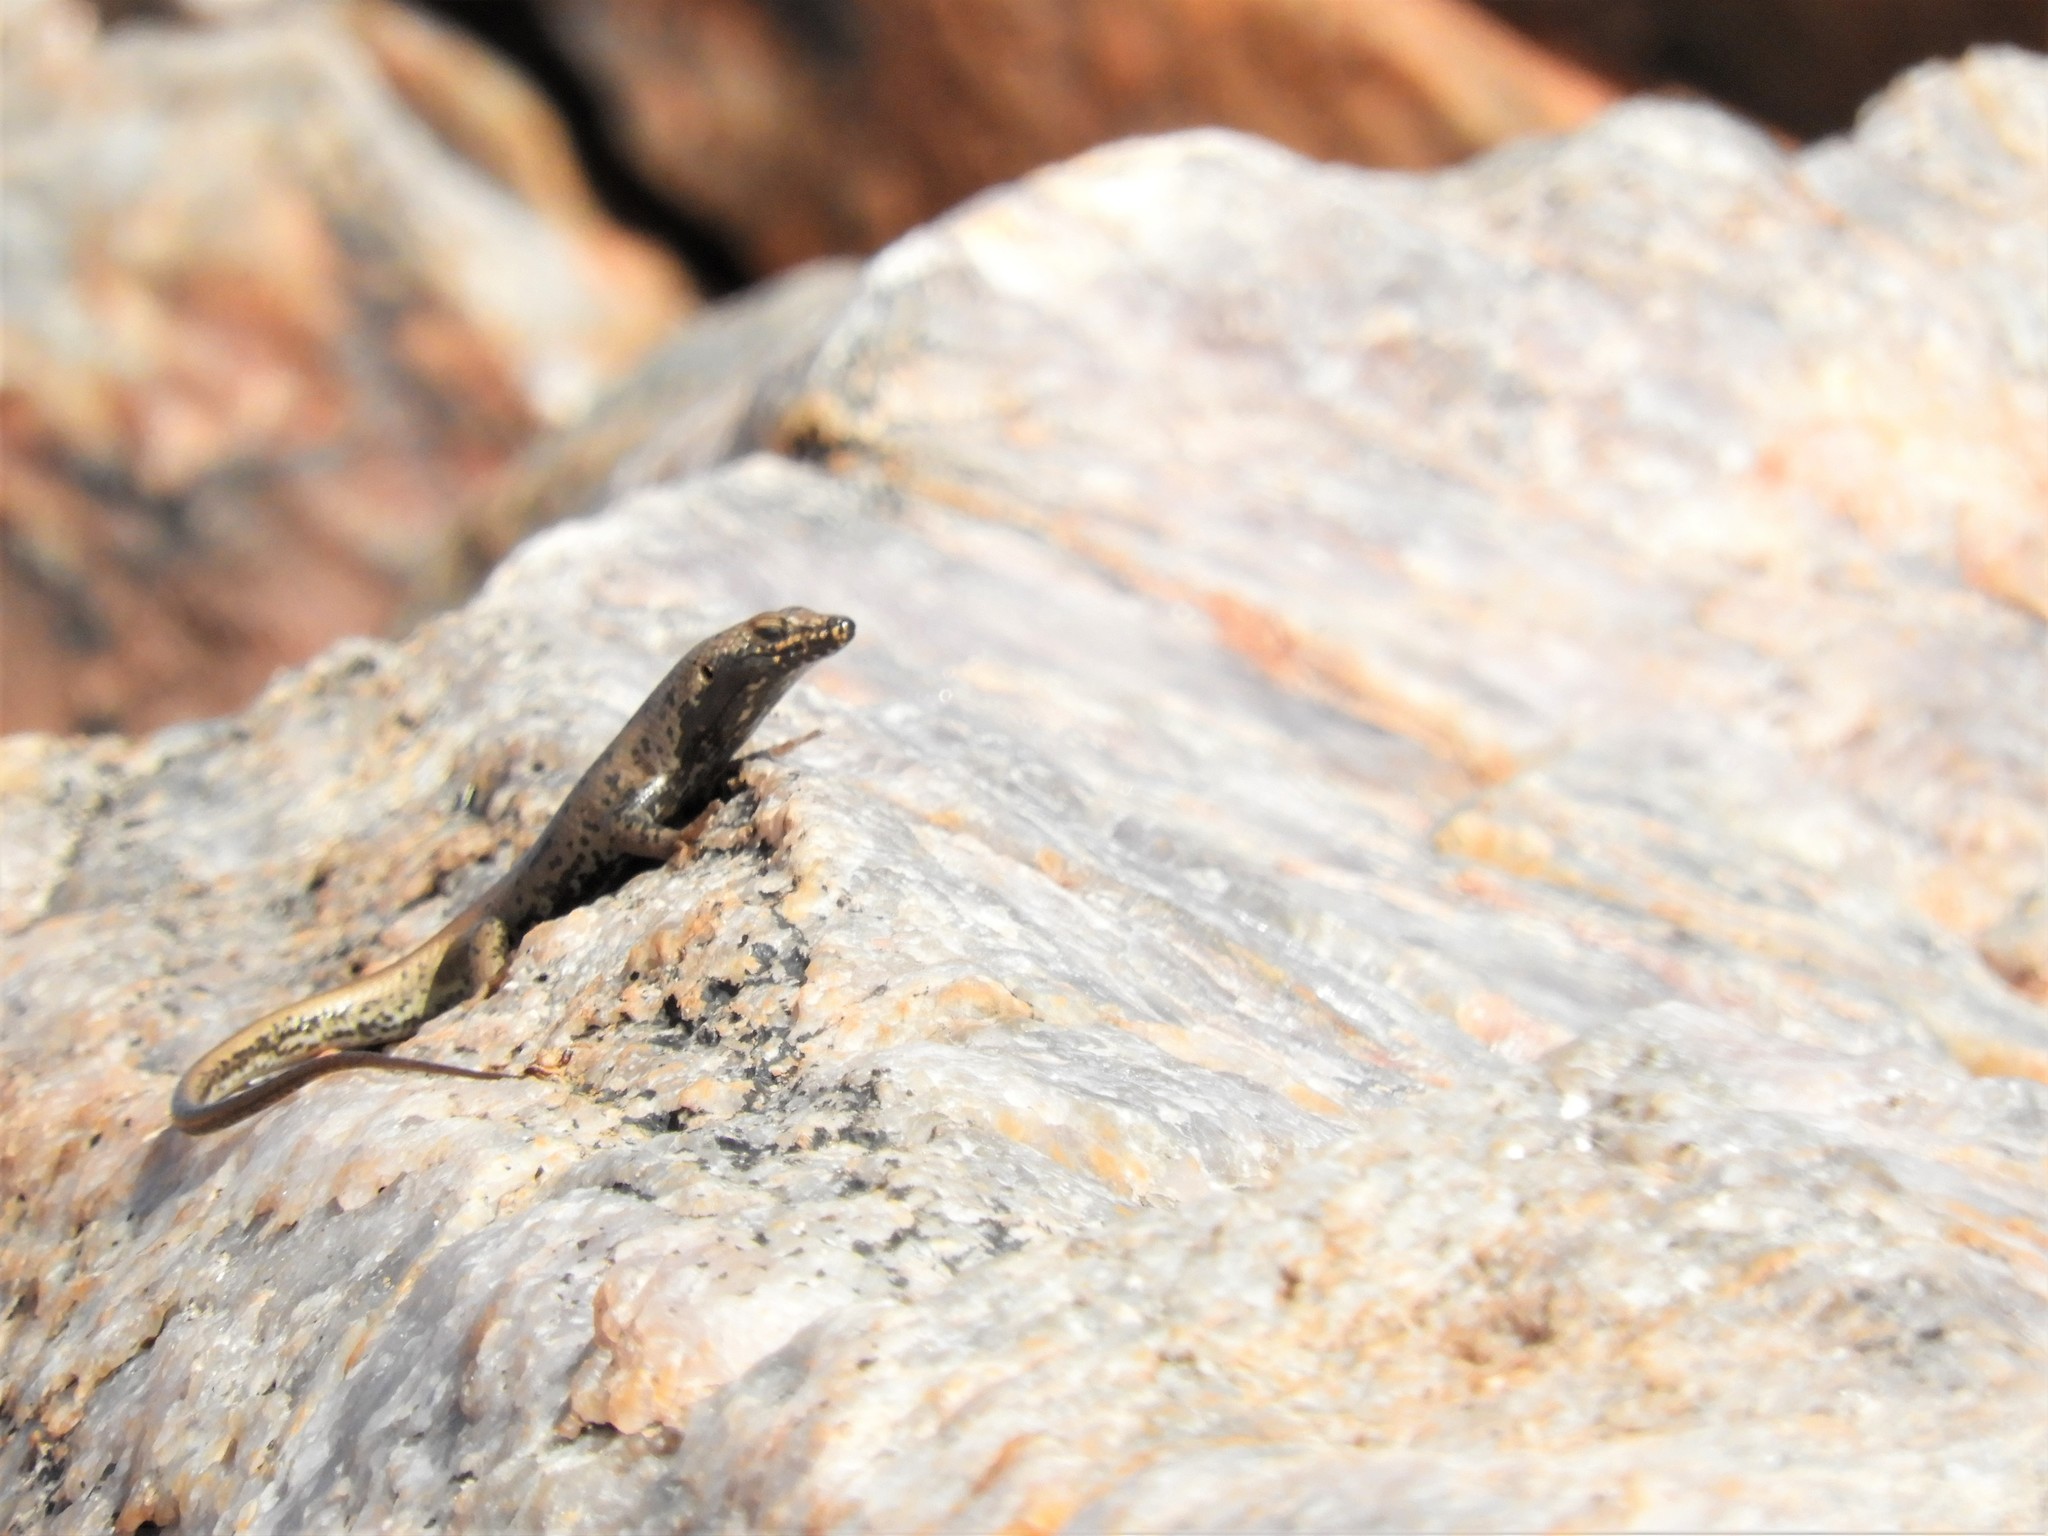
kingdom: Animalia
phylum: Chordata
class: Squamata
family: Scincidae
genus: Trachylepis
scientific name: Trachylepis sulcata
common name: Western rock skink
